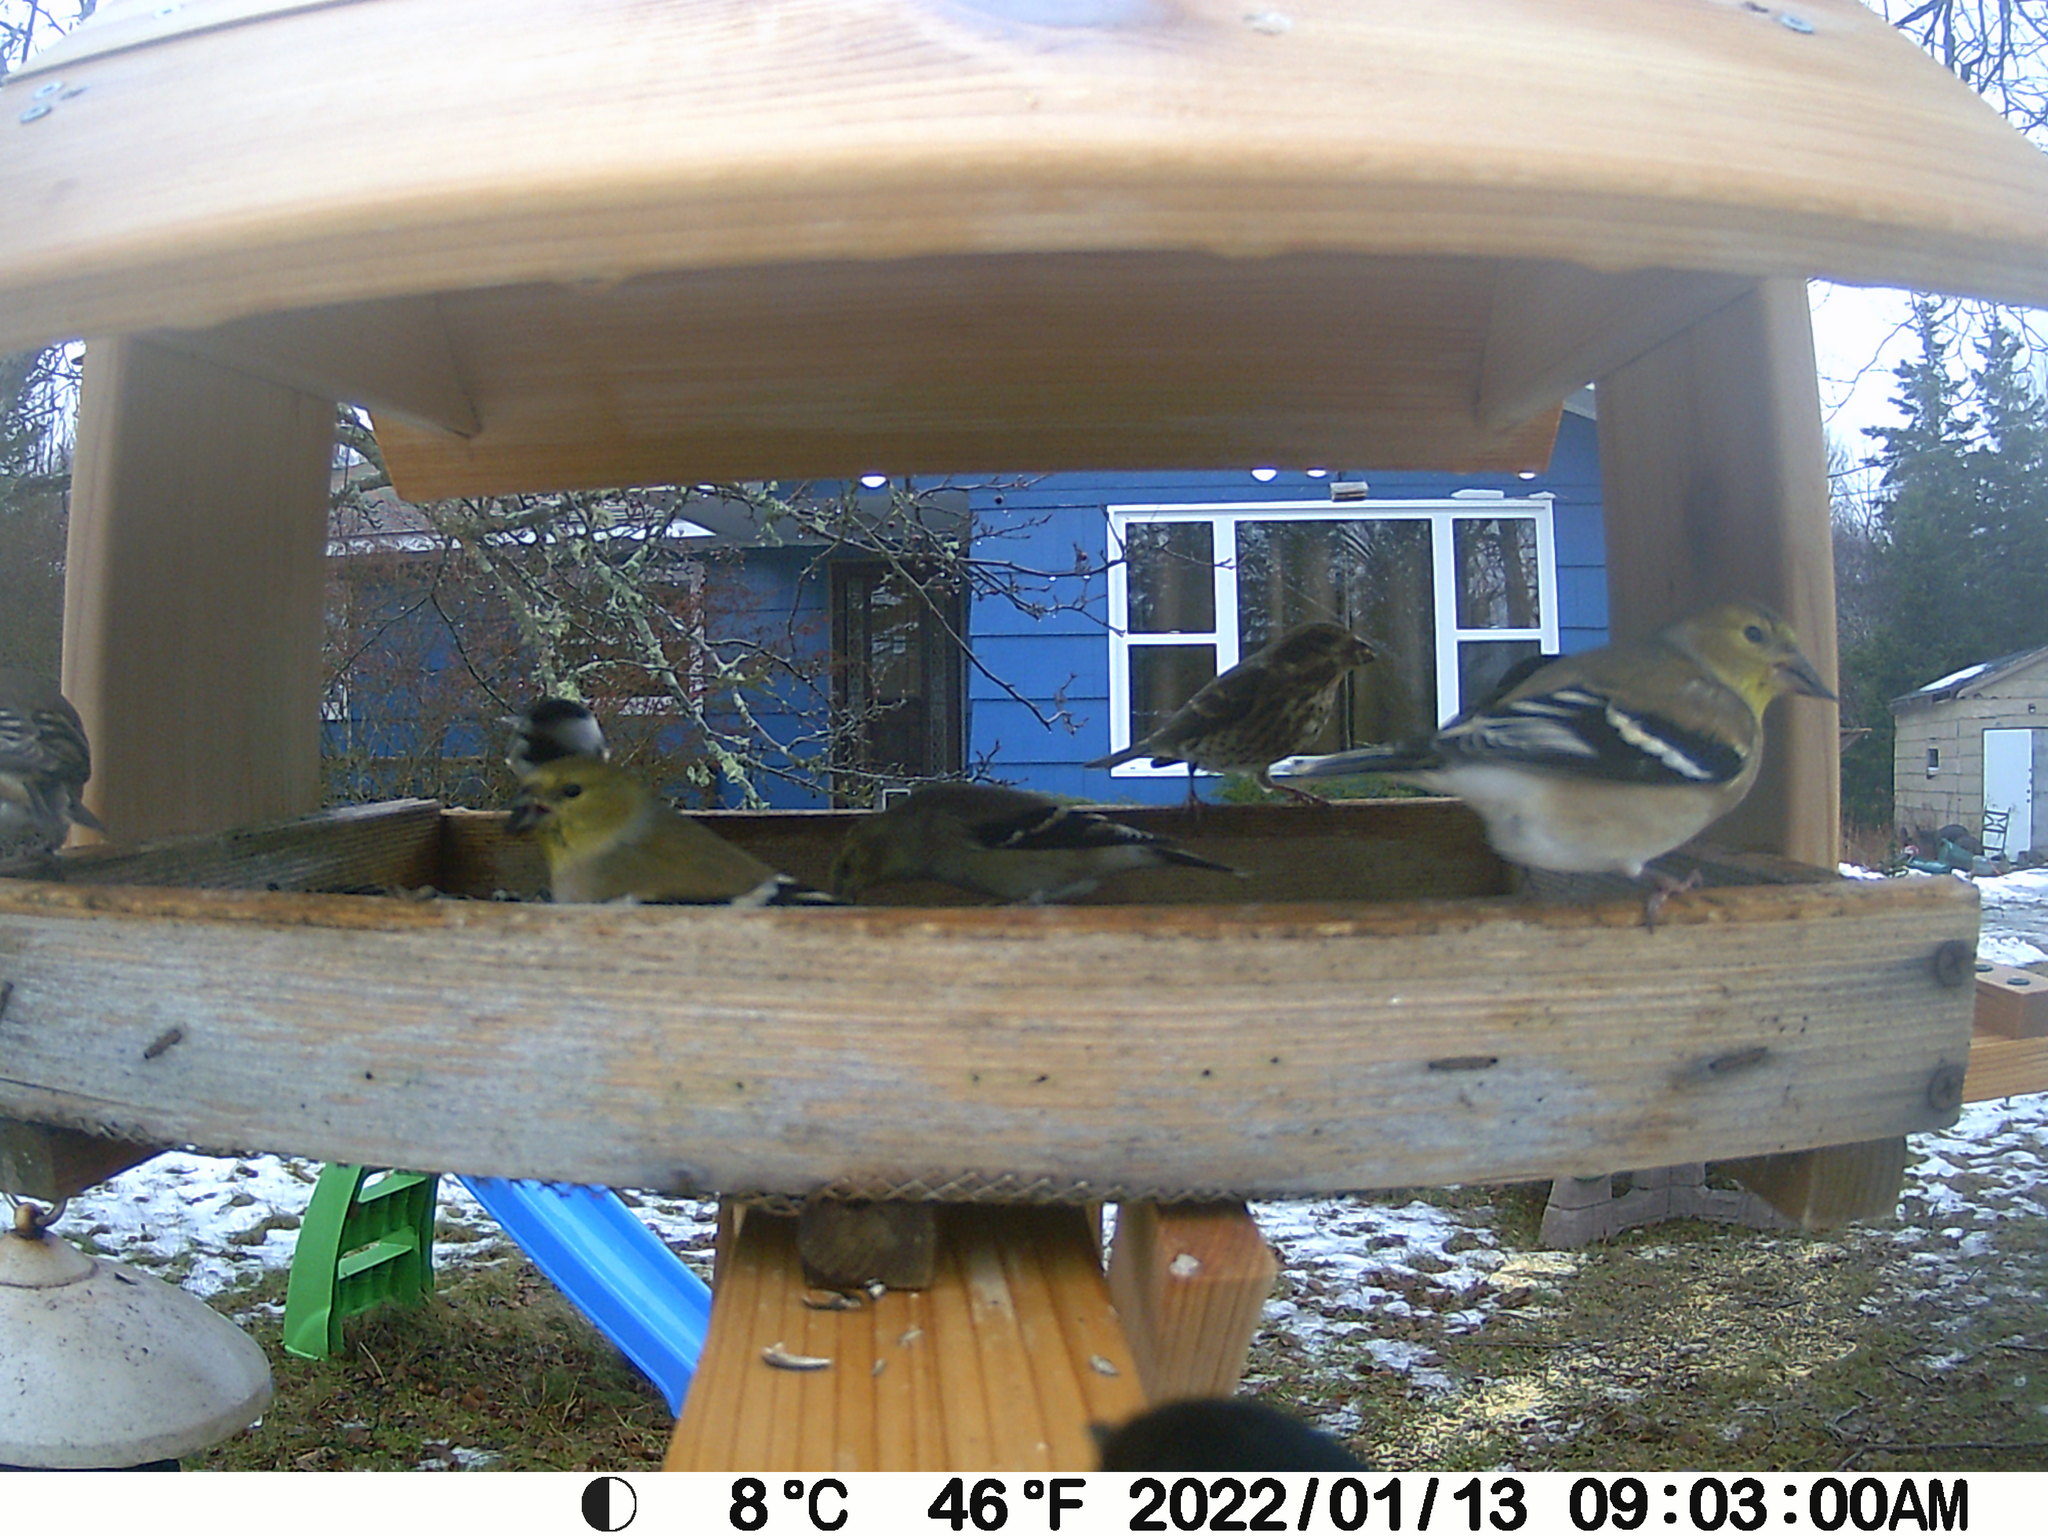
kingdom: Animalia
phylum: Chordata
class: Aves
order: Passeriformes
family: Fringillidae
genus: Haemorhous
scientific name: Haemorhous purpureus
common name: Purple finch
